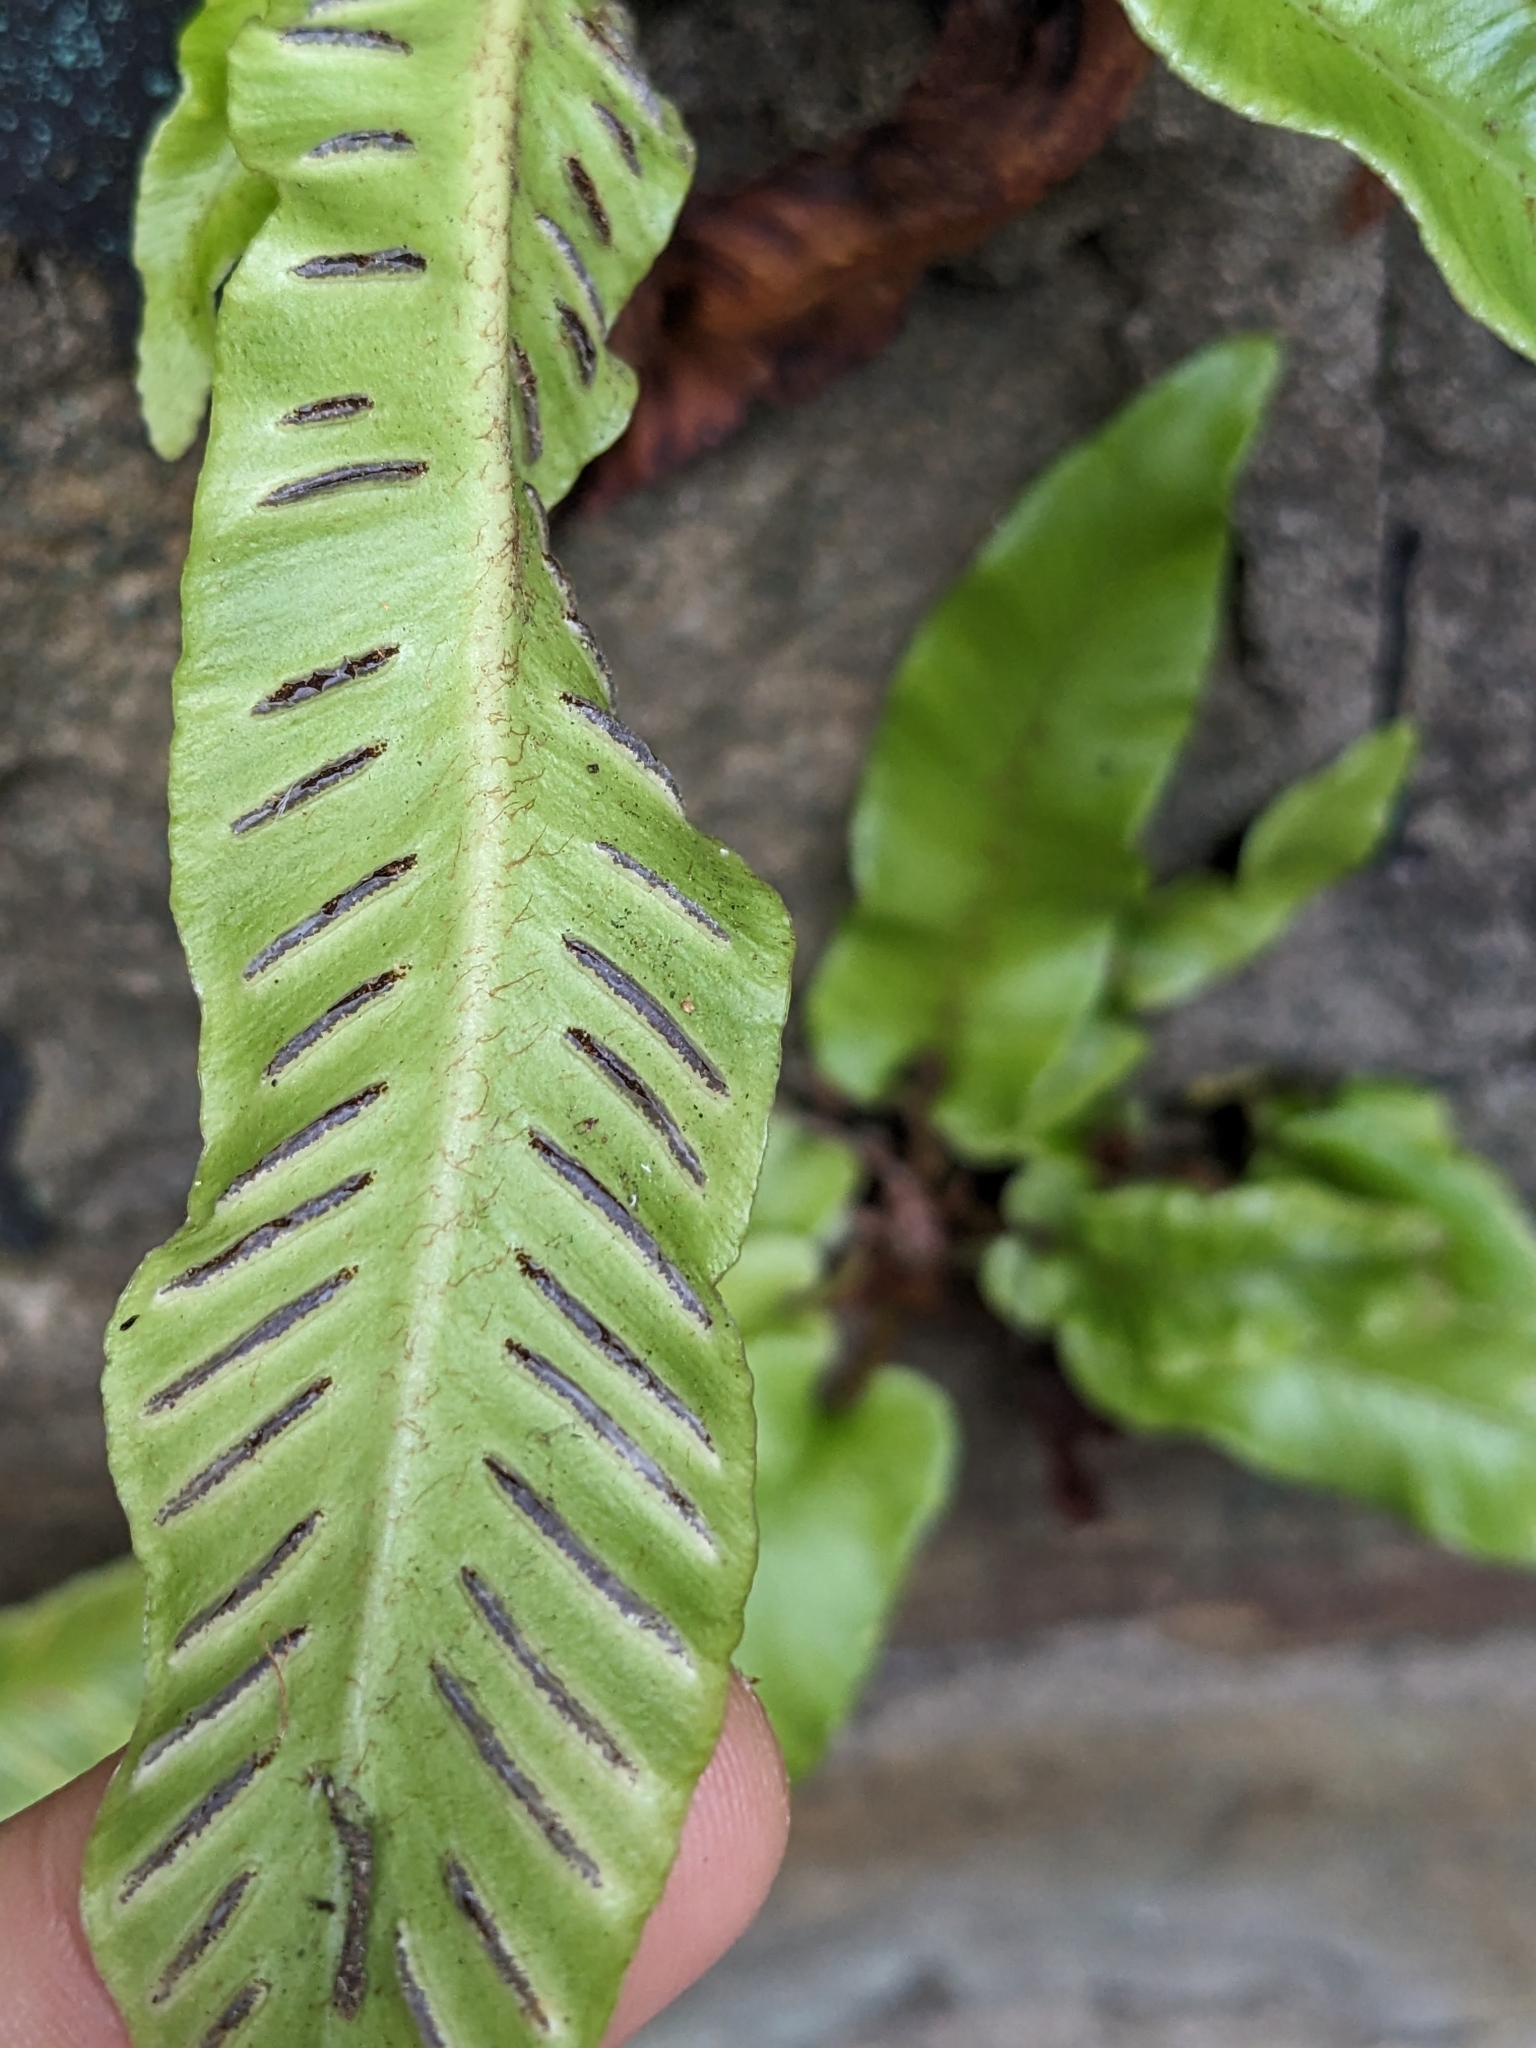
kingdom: Plantae
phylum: Tracheophyta
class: Polypodiopsida
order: Polypodiales
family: Aspleniaceae
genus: Asplenium
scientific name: Asplenium scolopendrium
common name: Hart's-tongue fern
